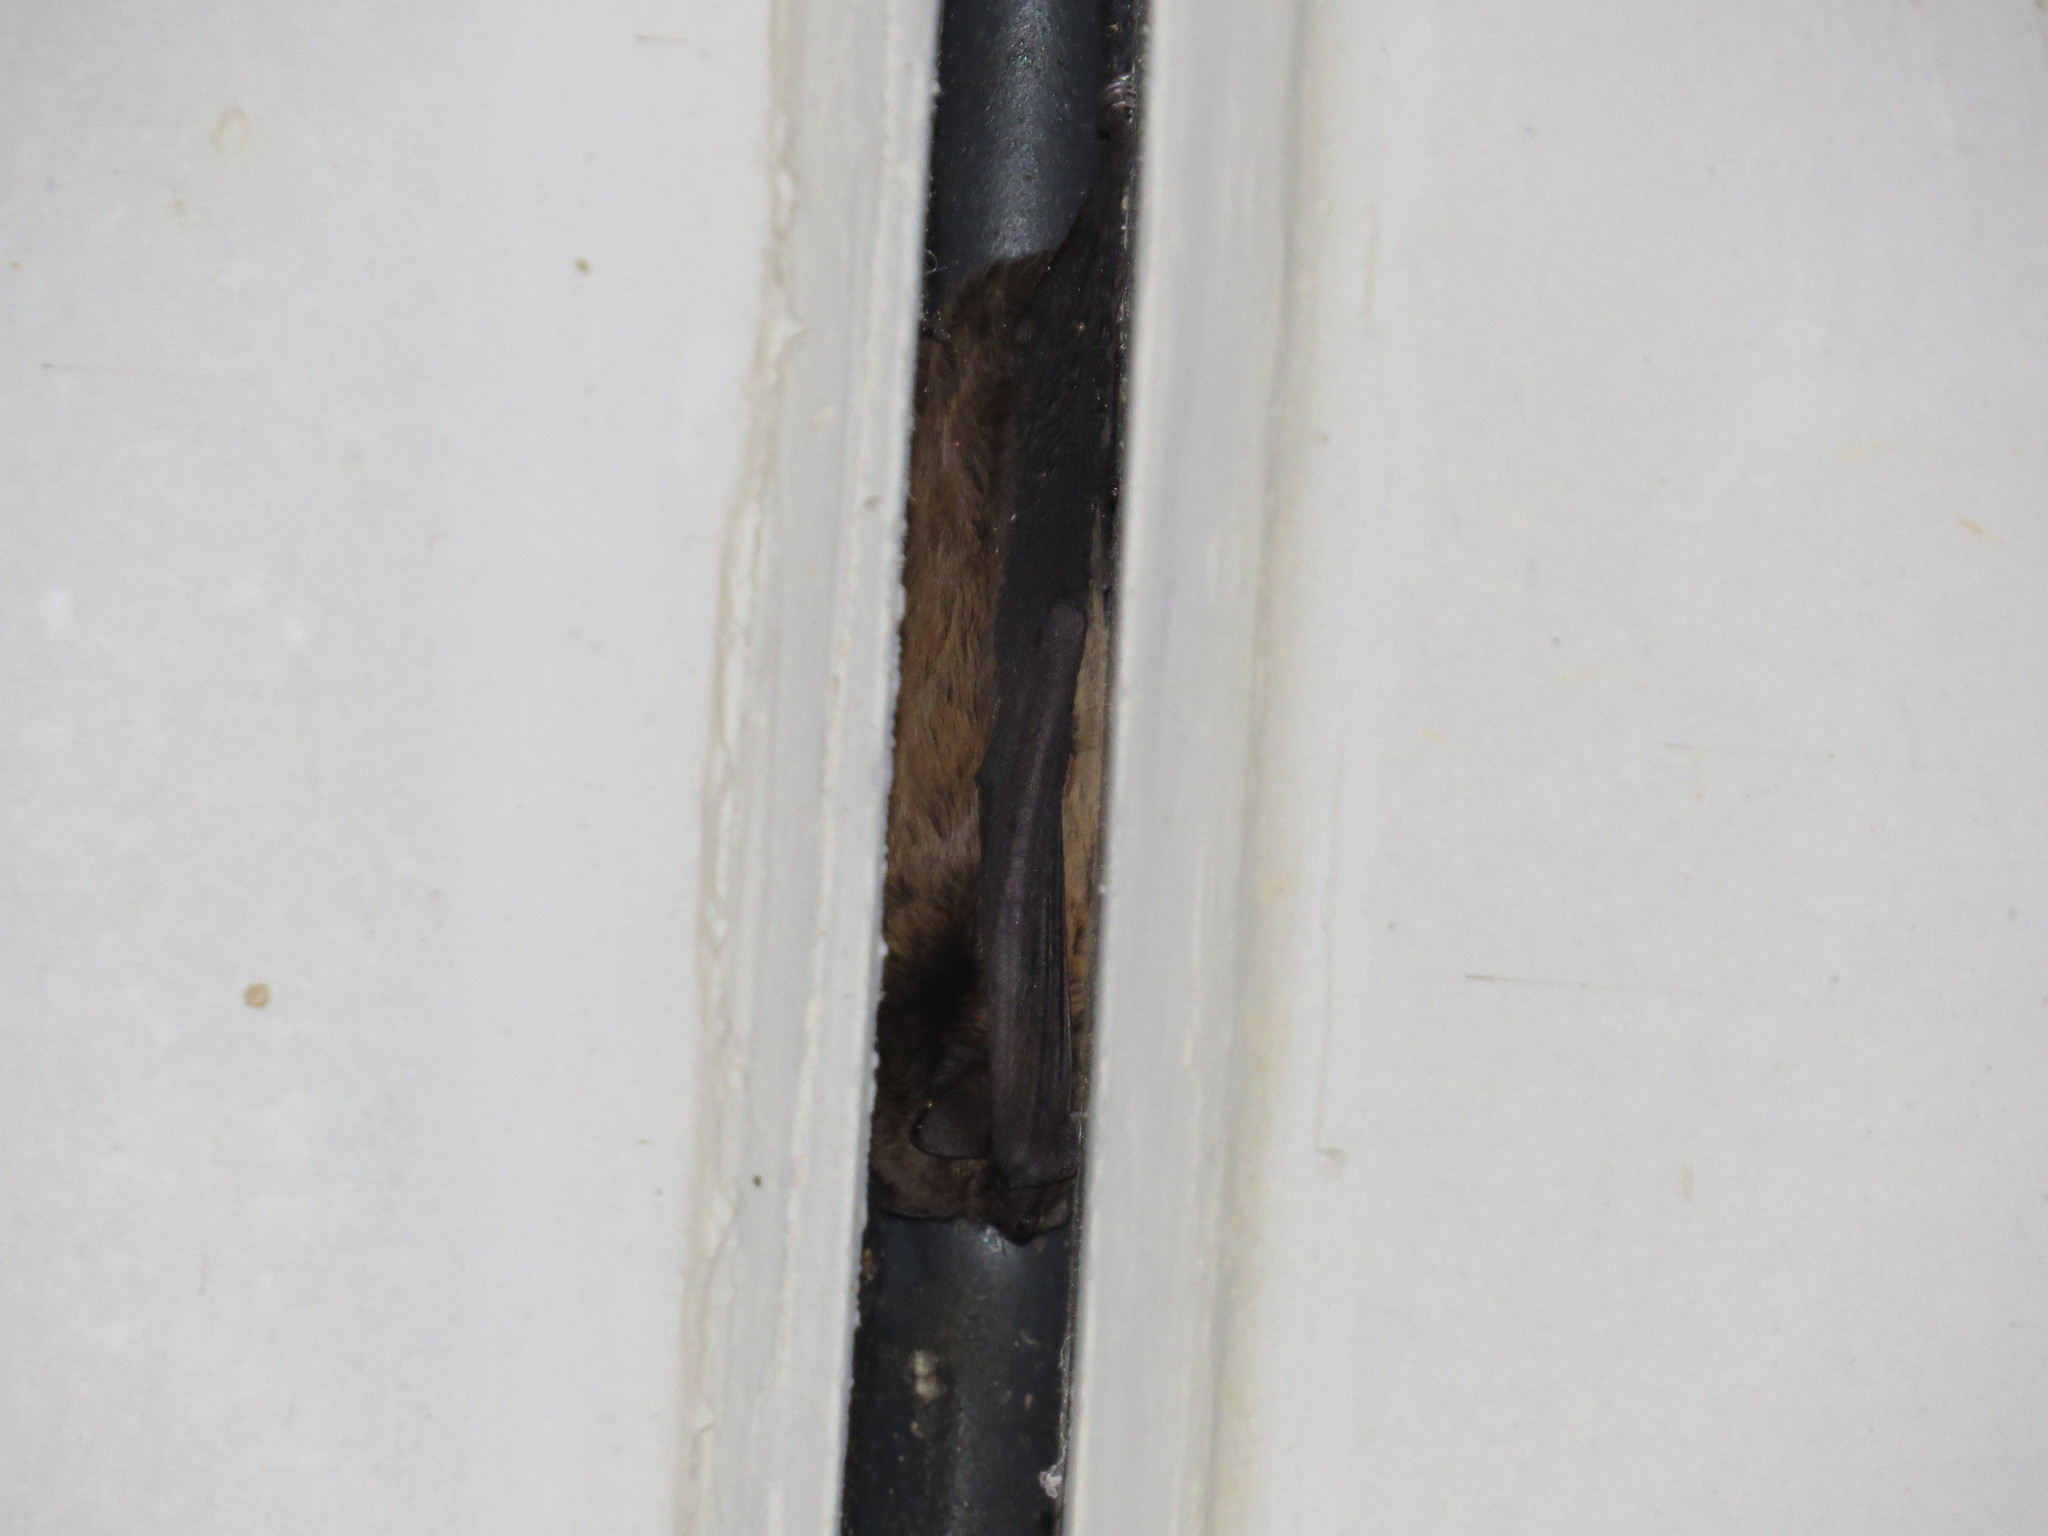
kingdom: Animalia
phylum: Chordata
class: Mammalia
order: Chiroptera
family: Vespertilionidae
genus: Nyctalus
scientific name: Nyctalus leisleri
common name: Lesser noctule
